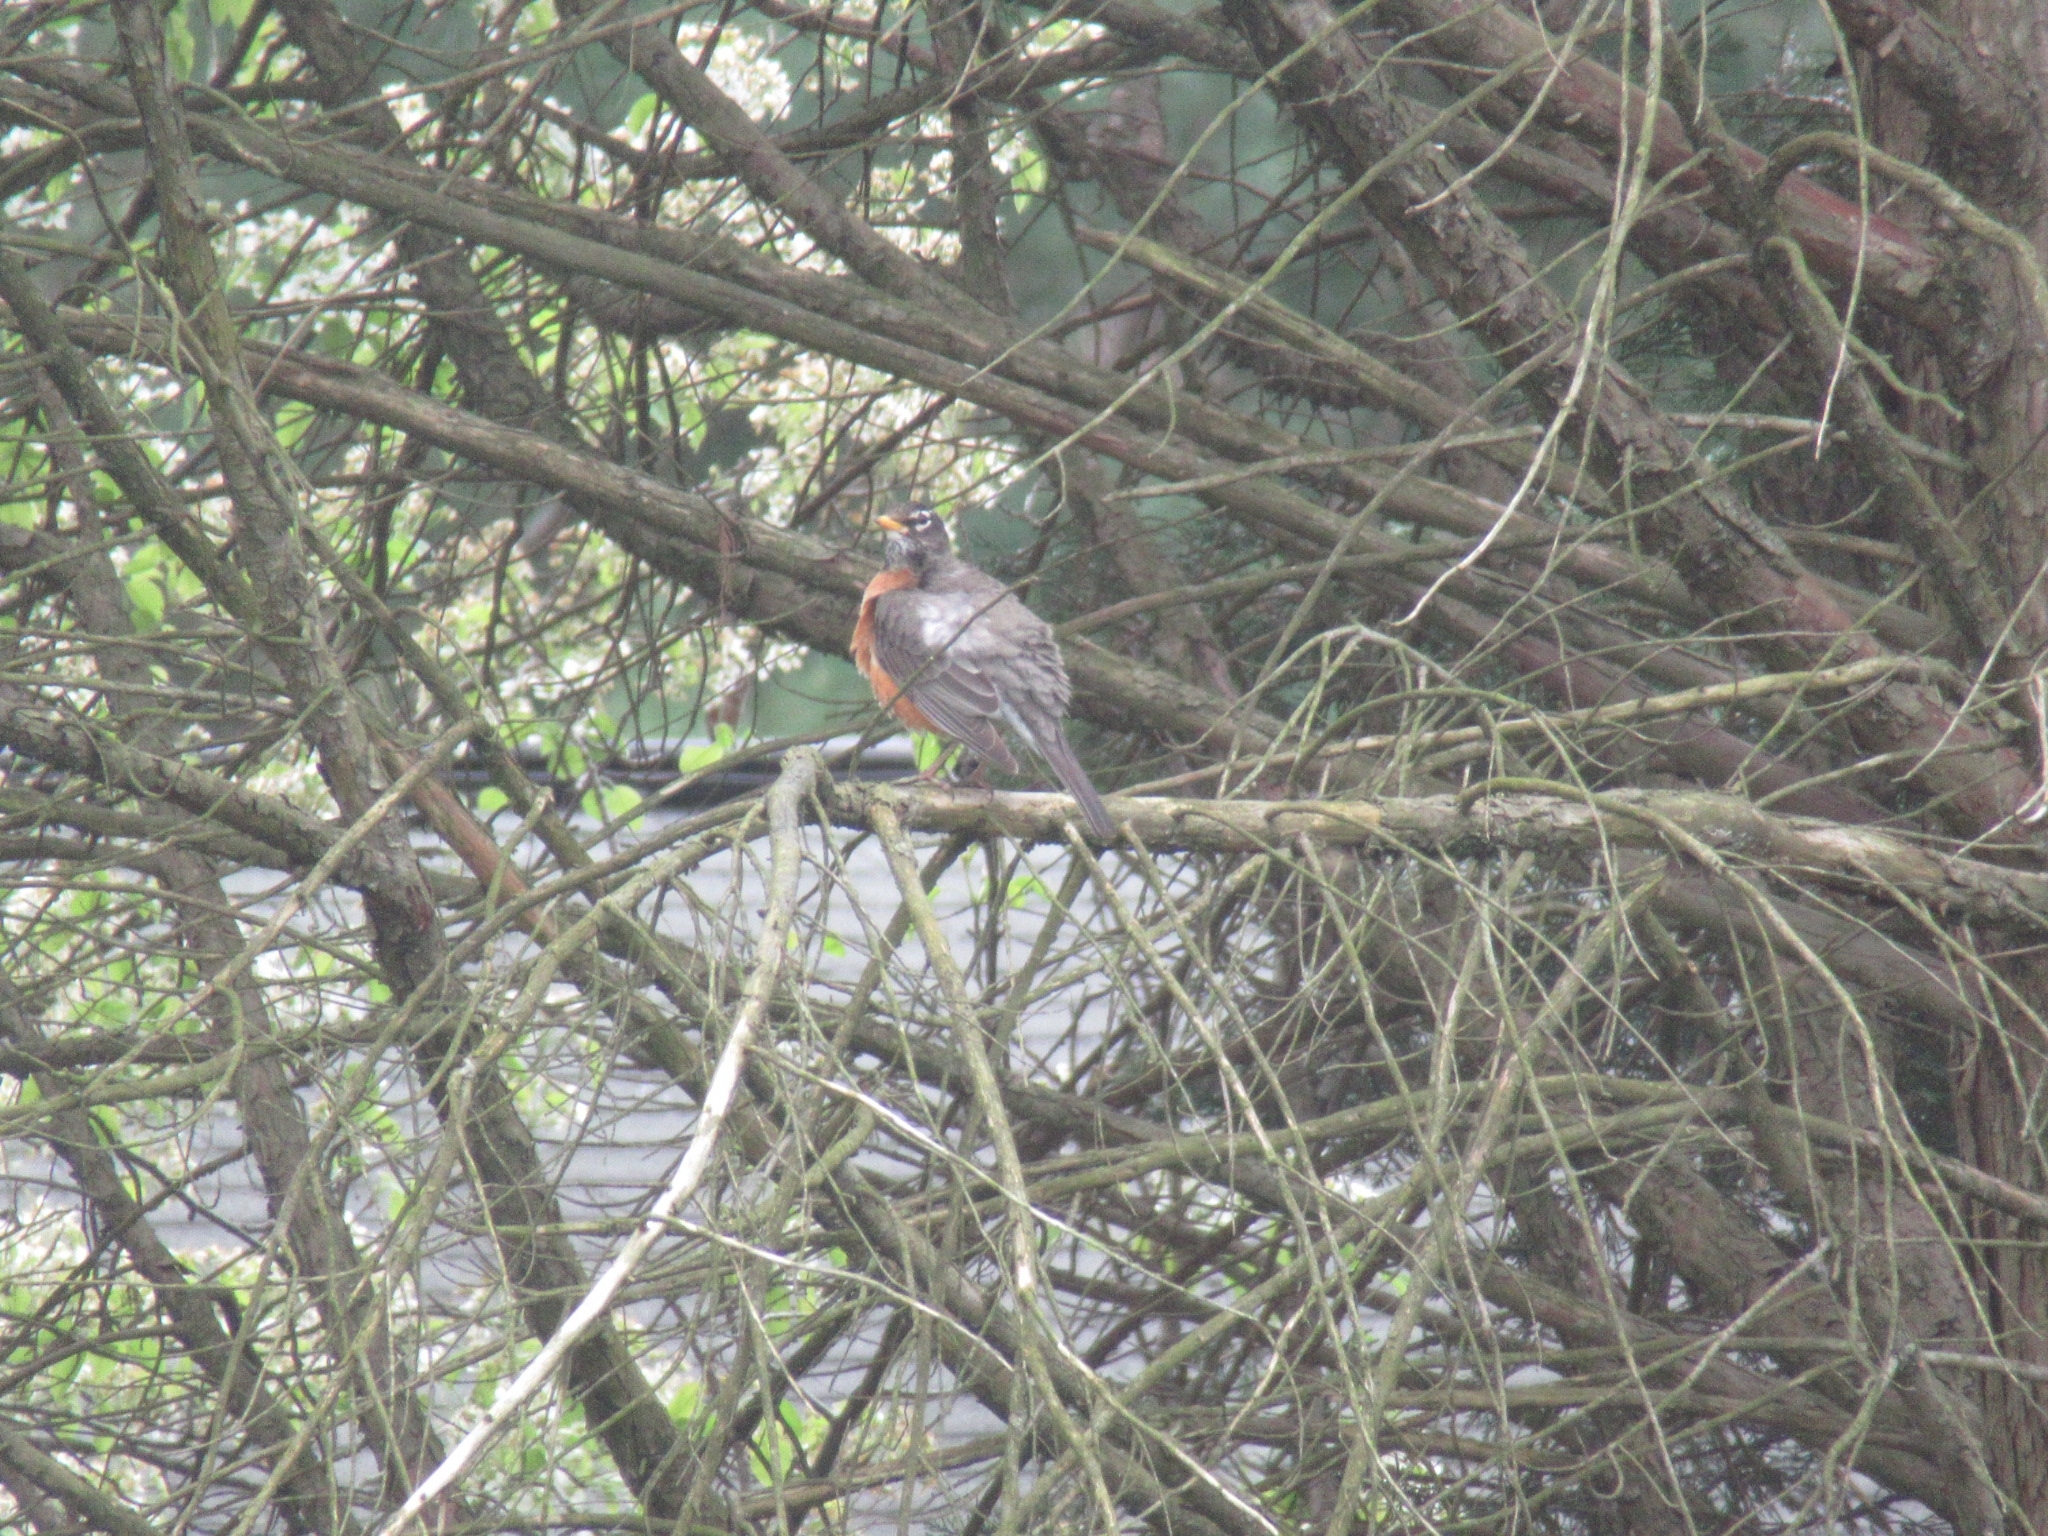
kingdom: Animalia
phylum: Chordata
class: Aves
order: Passeriformes
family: Turdidae
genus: Turdus
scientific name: Turdus migratorius
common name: American robin
